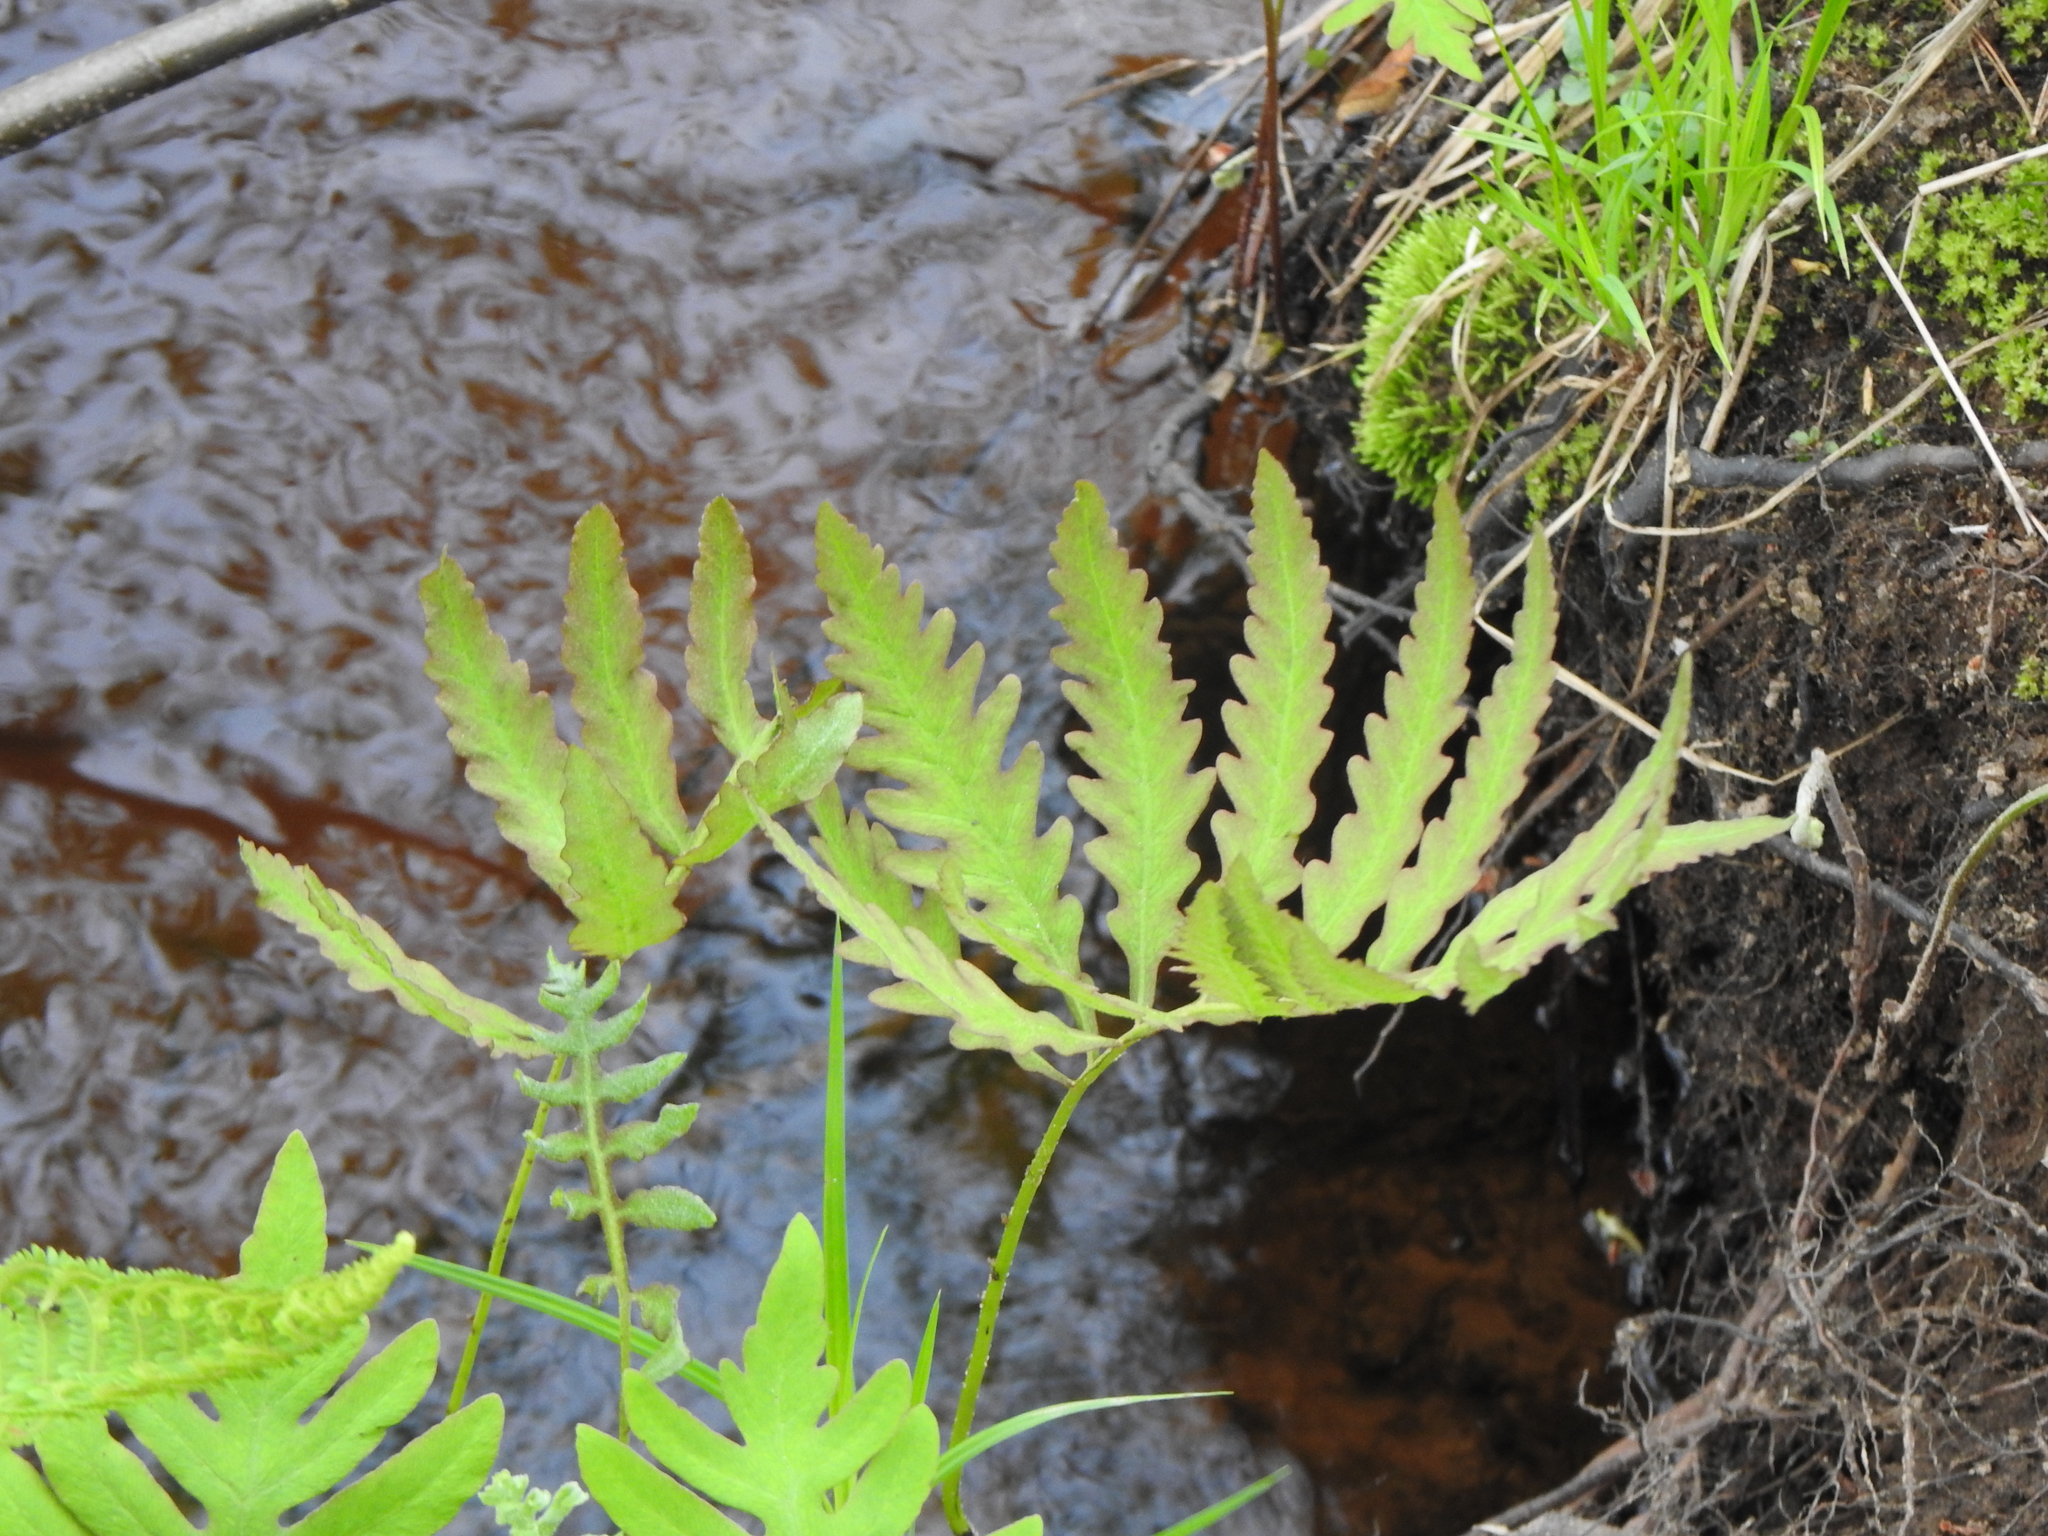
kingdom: Plantae
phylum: Tracheophyta
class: Polypodiopsida
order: Polypodiales
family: Onocleaceae
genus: Onoclea
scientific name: Onoclea sensibilis
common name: Sensitive fern
